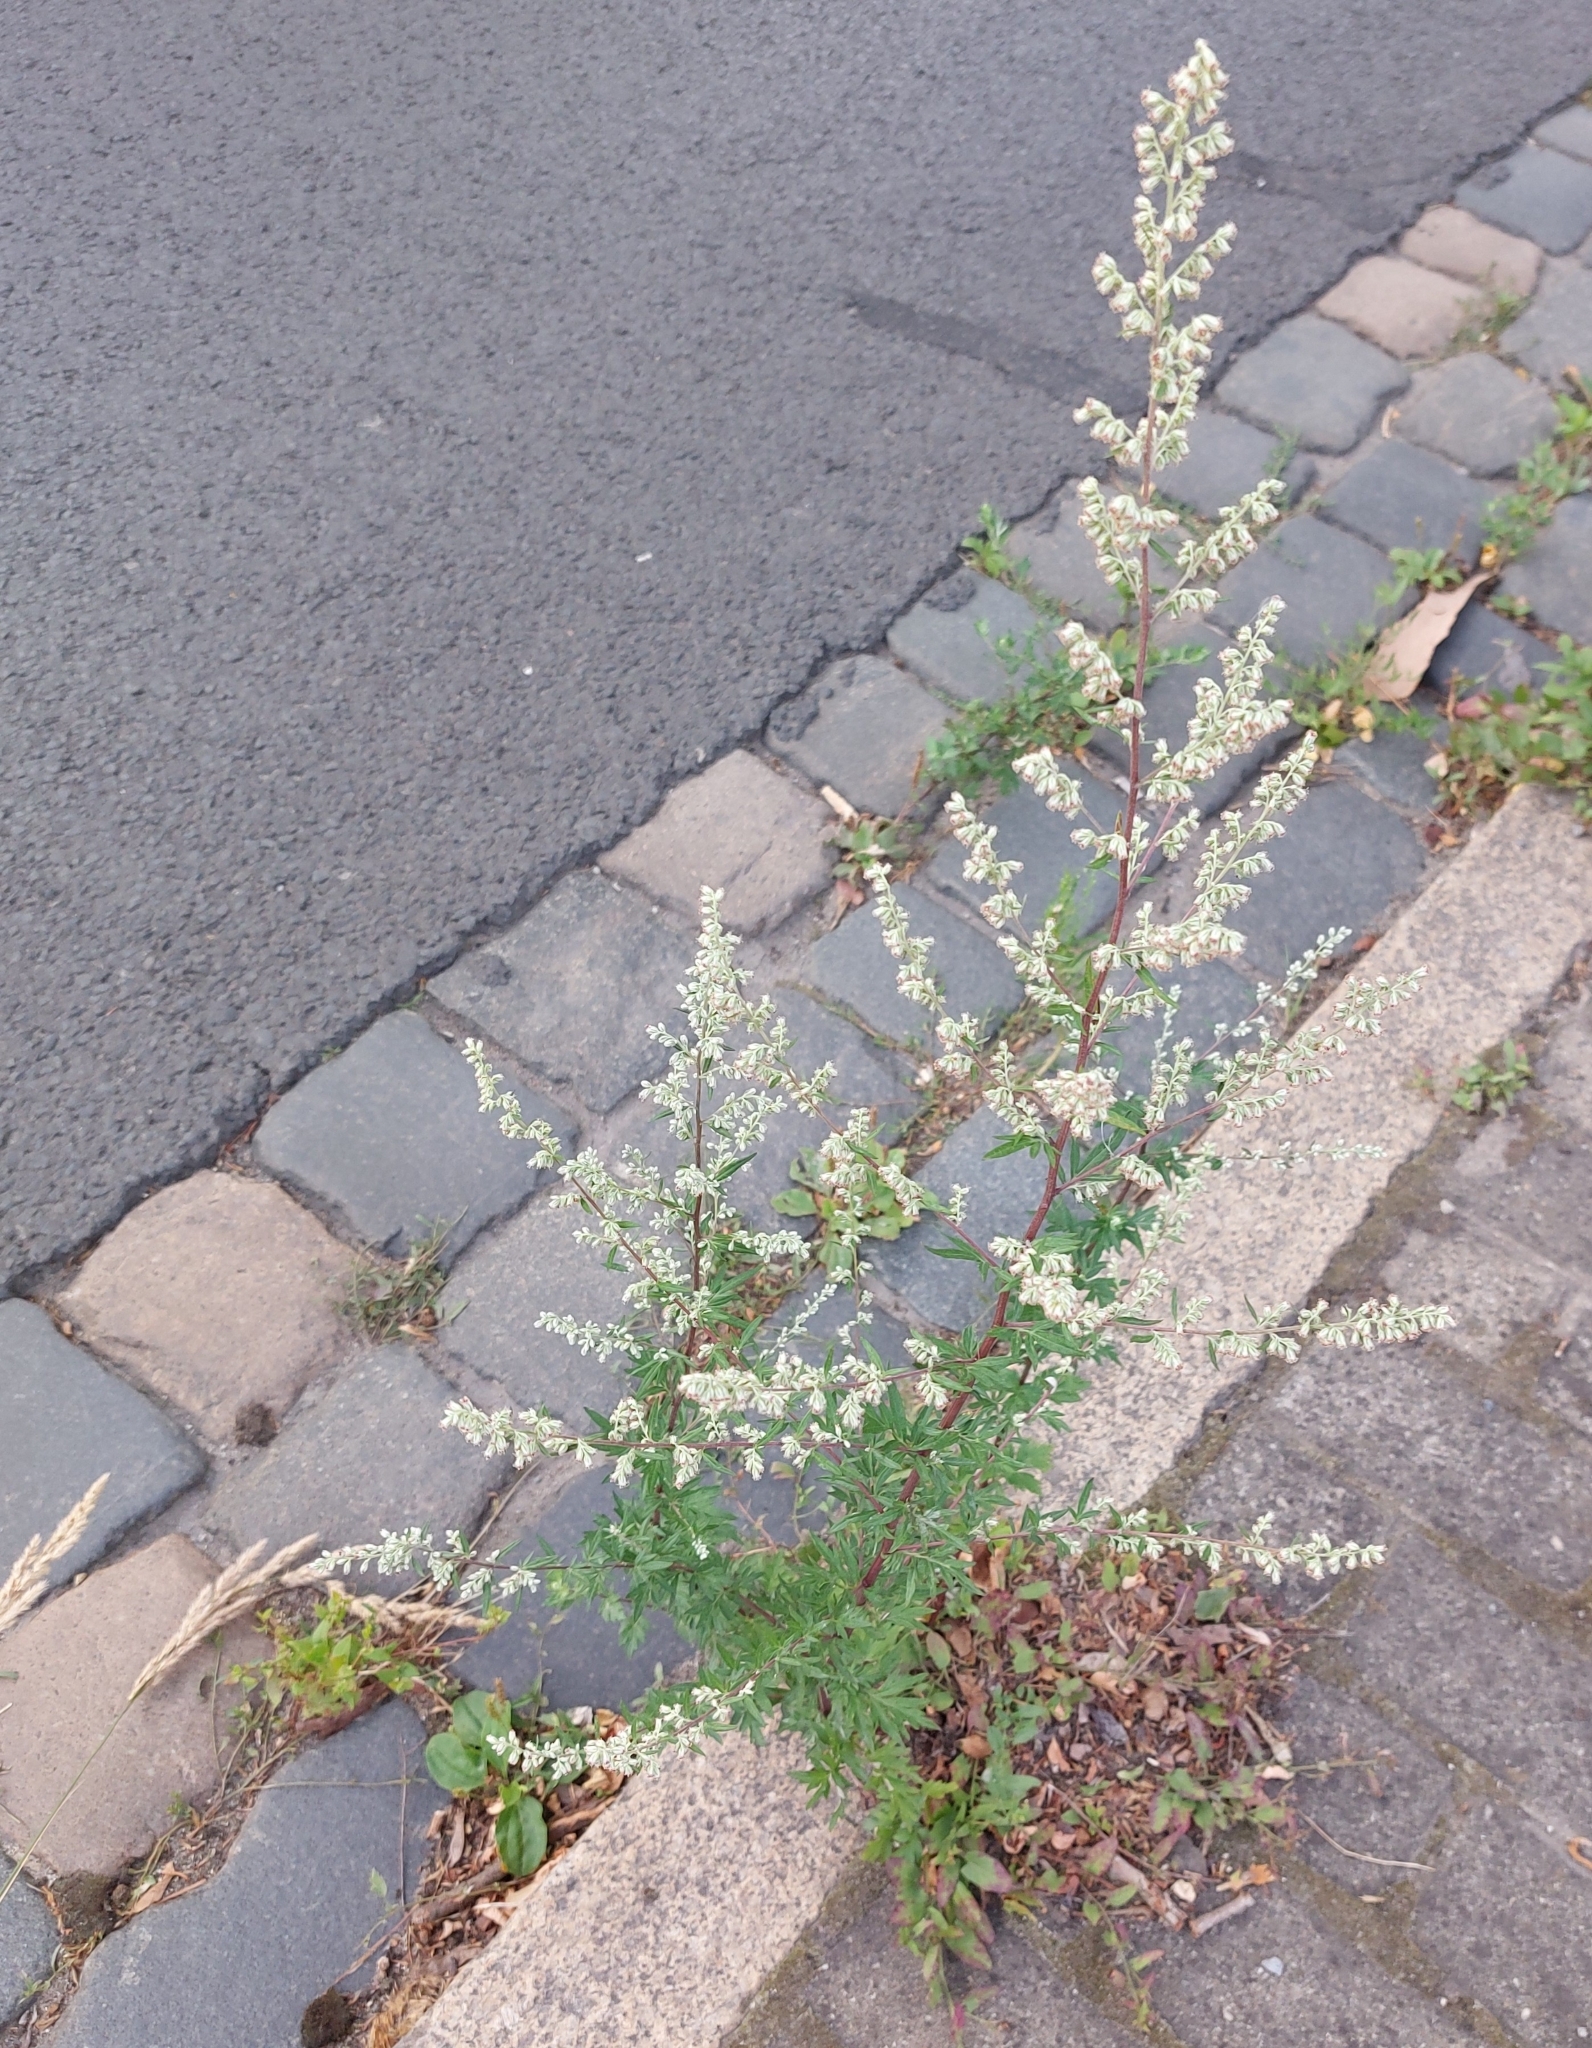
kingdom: Plantae
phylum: Tracheophyta
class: Magnoliopsida
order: Asterales
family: Asteraceae
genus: Artemisia
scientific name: Artemisia vulgaris
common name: Mugwort
